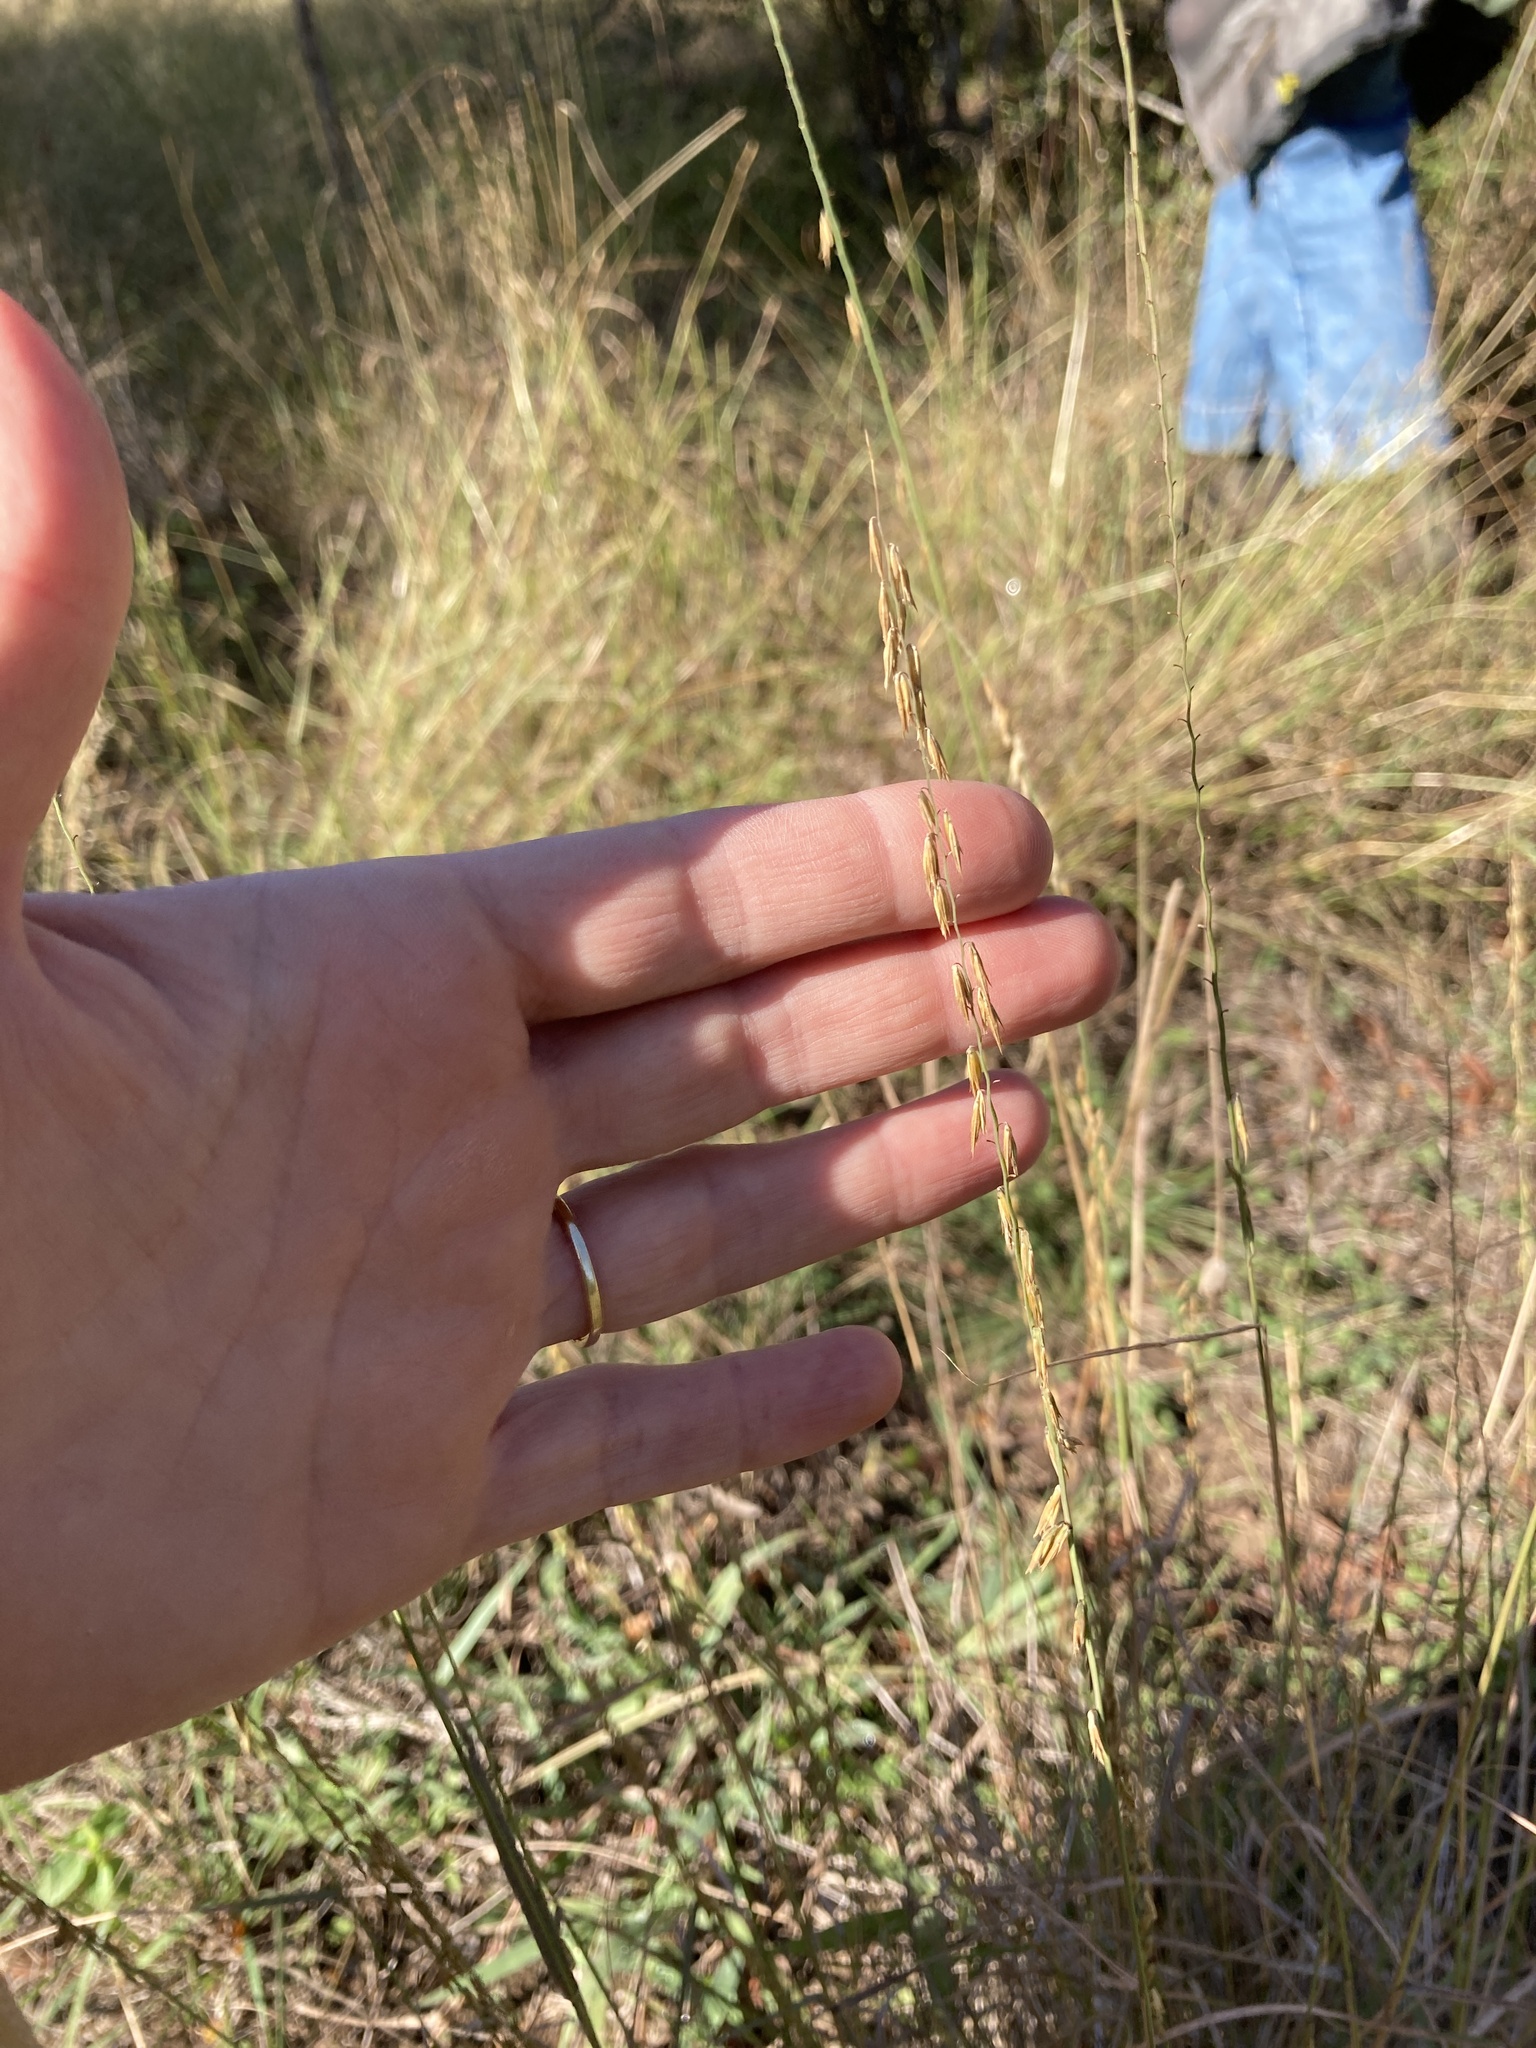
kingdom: Plantae
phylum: Tracheophyta
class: Liliopsida
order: Poales
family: Poaceae
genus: Bouteloua
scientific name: Bouteloua curtipendula
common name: Side-oats grama
